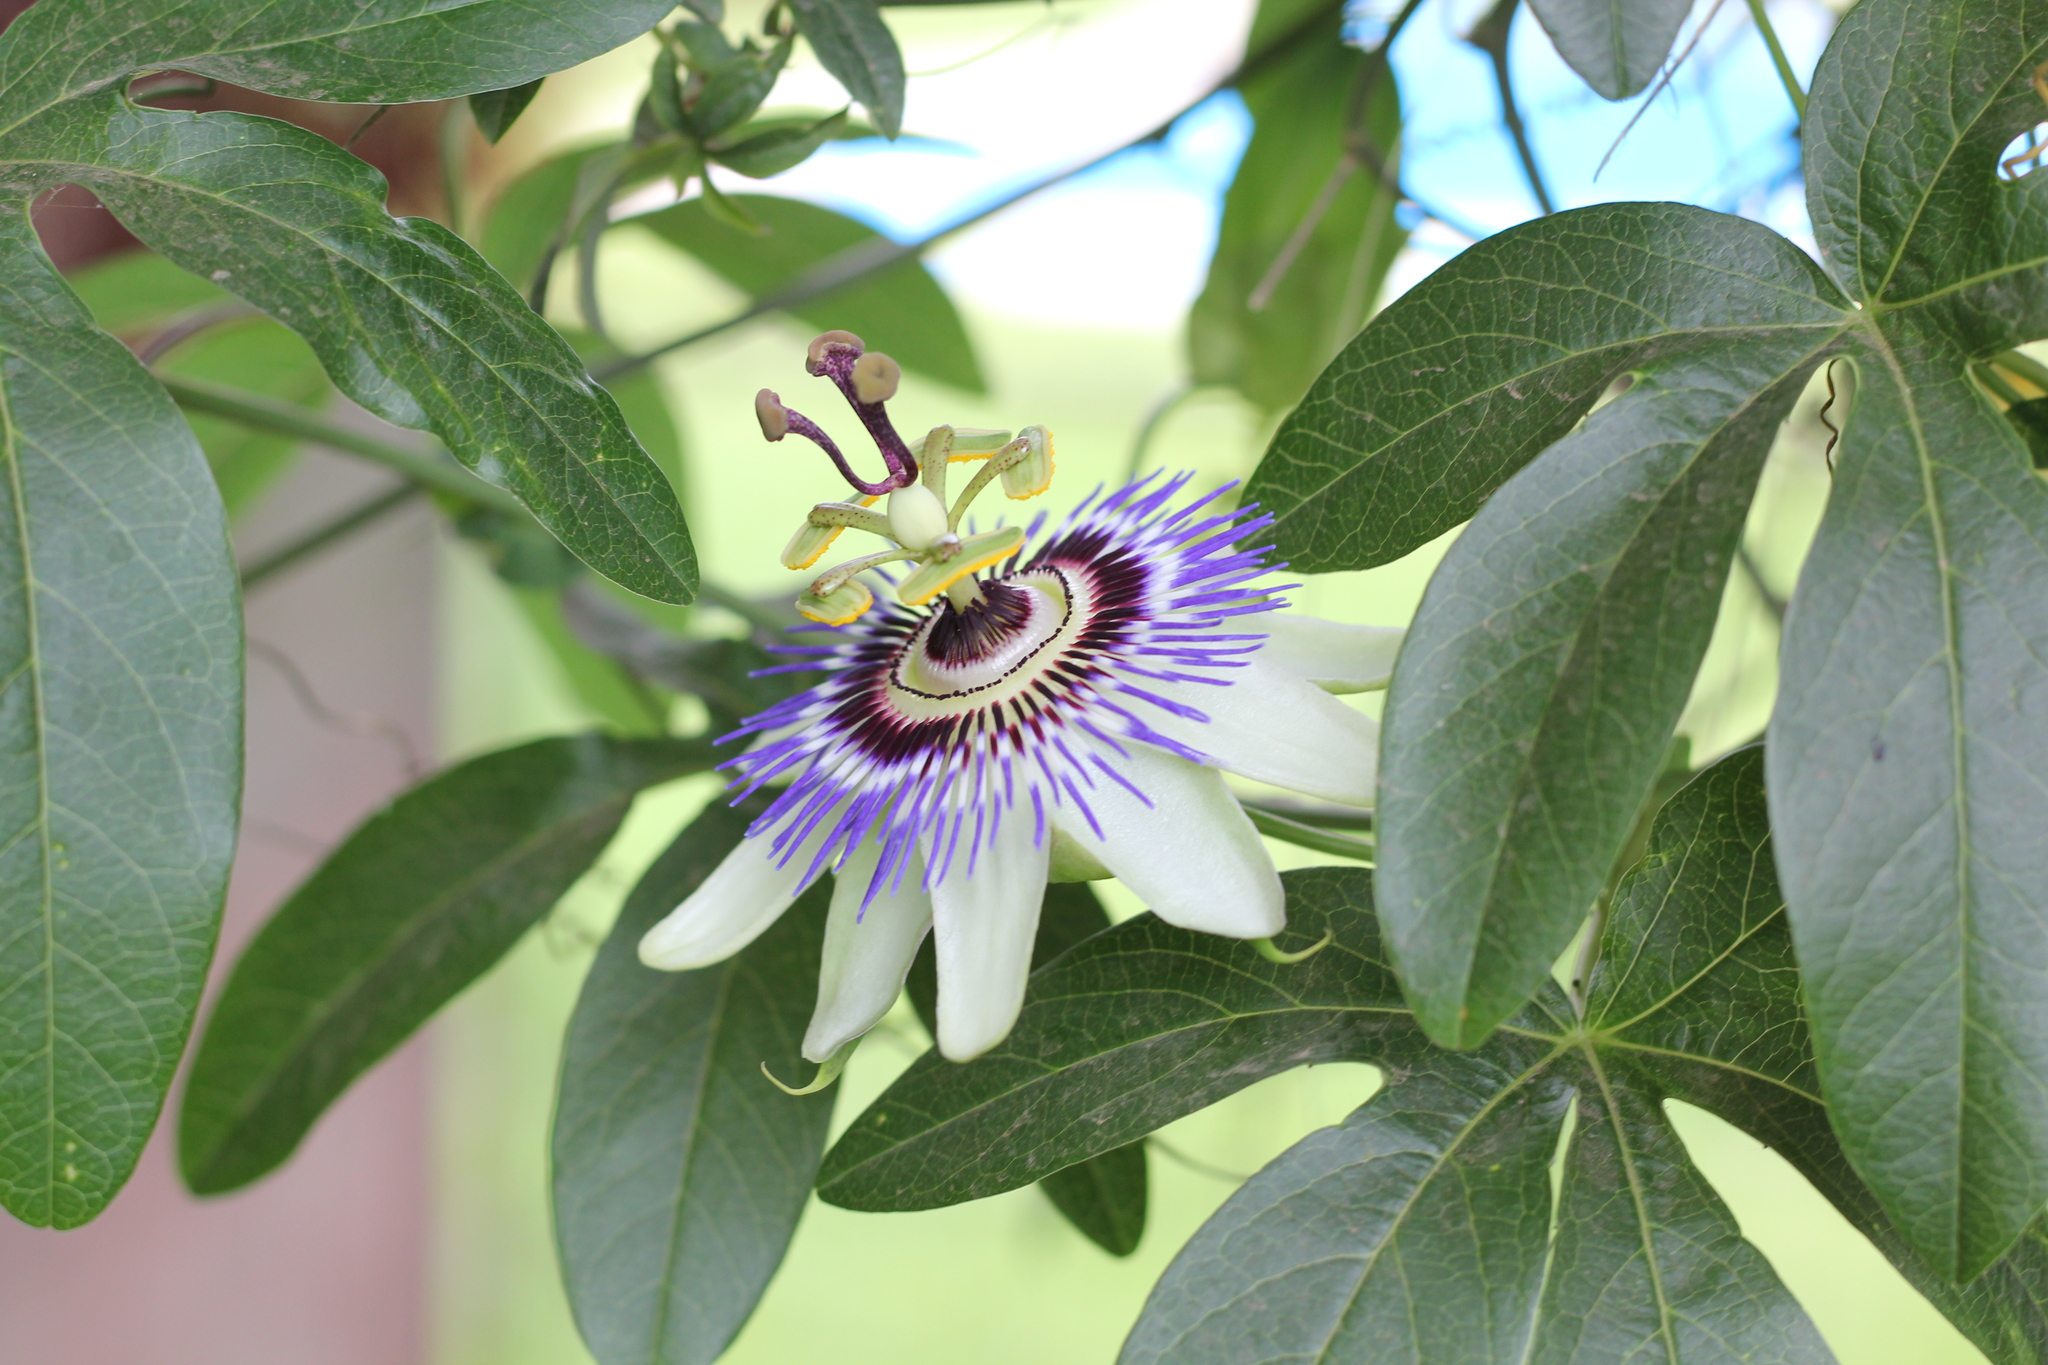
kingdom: Plantae
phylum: Tracheophyta
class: Magnoliopsida
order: Malpighiales
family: Passifloraceae
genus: Passiflora
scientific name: Passiflora caerulea
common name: Blue passionflower
